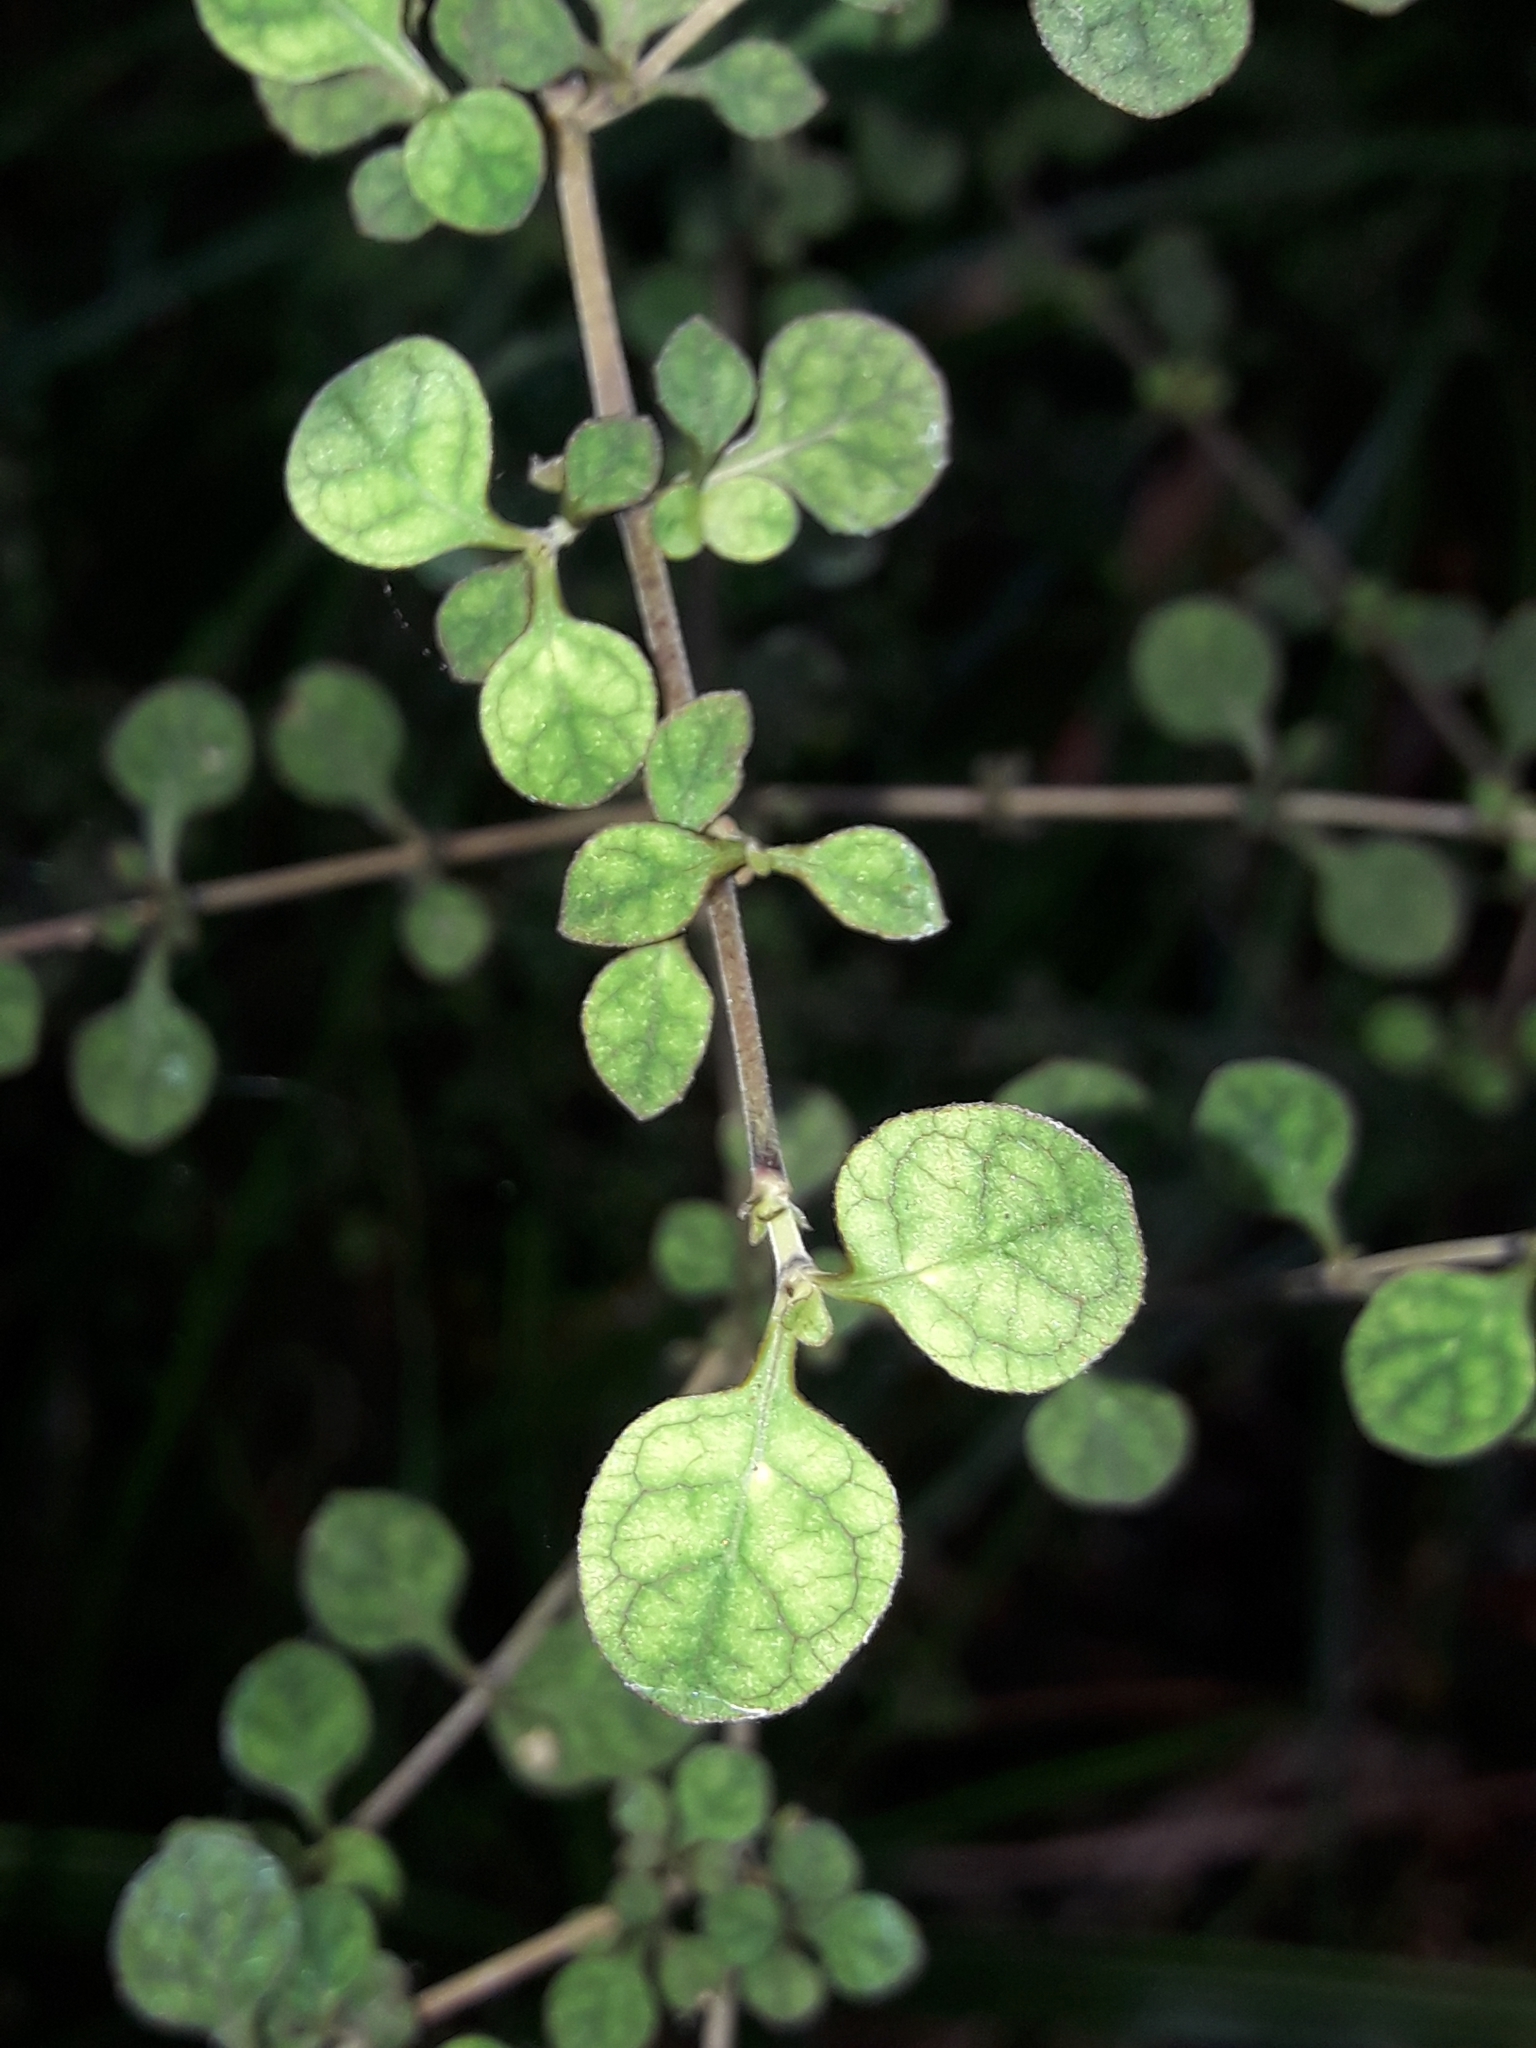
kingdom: Plantae
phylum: Tracheophyta
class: Magnoliopsida
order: Gentianales
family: Rubiaceae
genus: Coprosma
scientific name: Coprosma tenuicaulis
